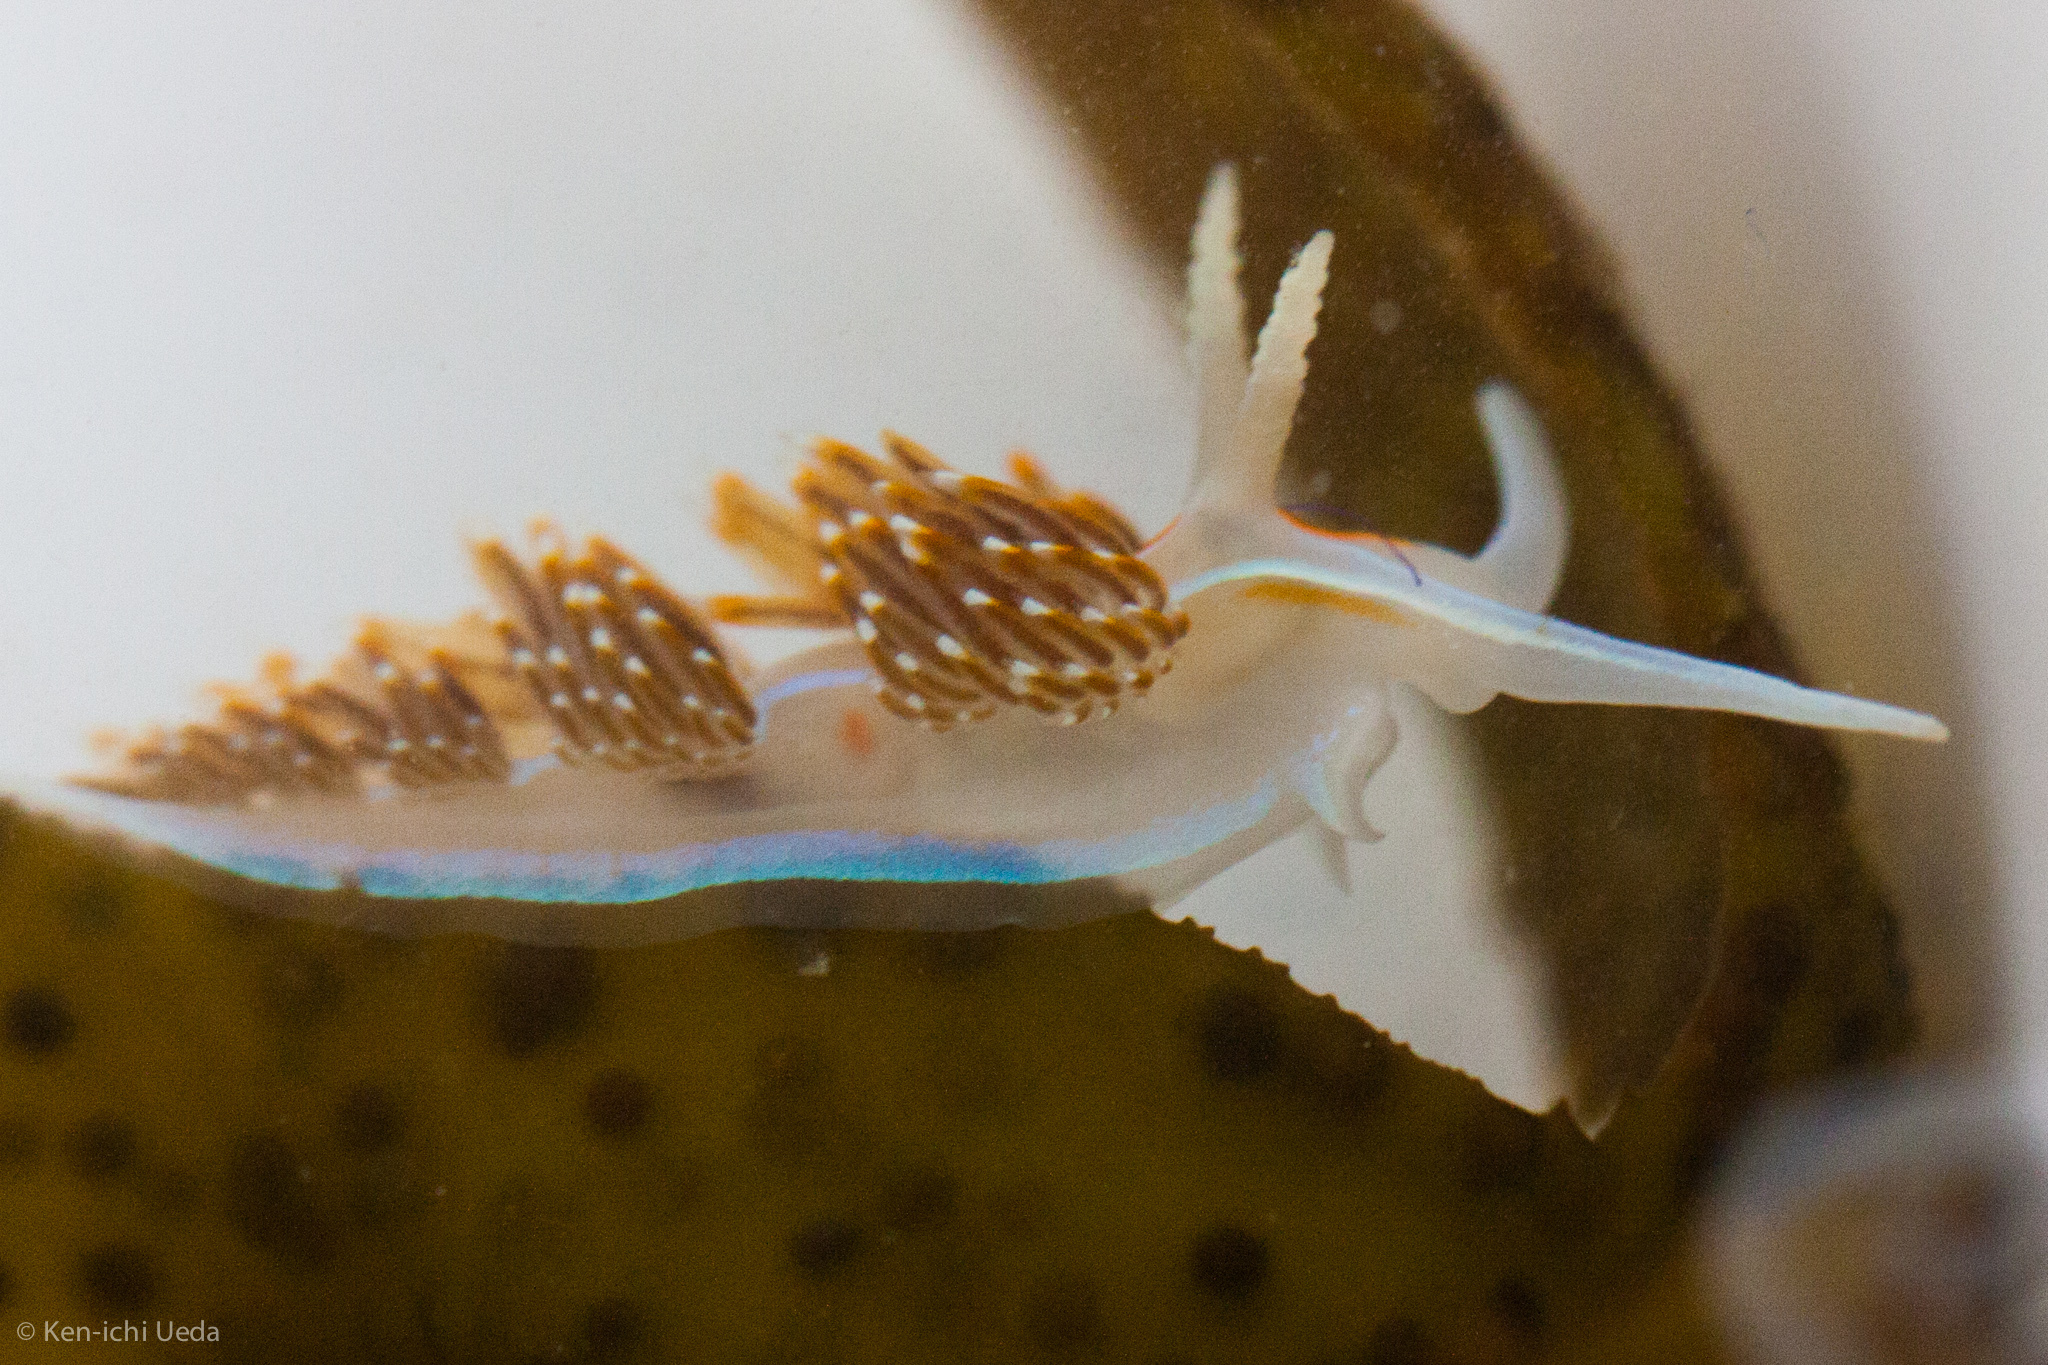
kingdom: Animalia
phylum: Mollusca
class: Gastropoda
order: Nudibranchia
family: Myrrhinidae
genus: Hermissenda
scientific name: Hermissenda opalescens
